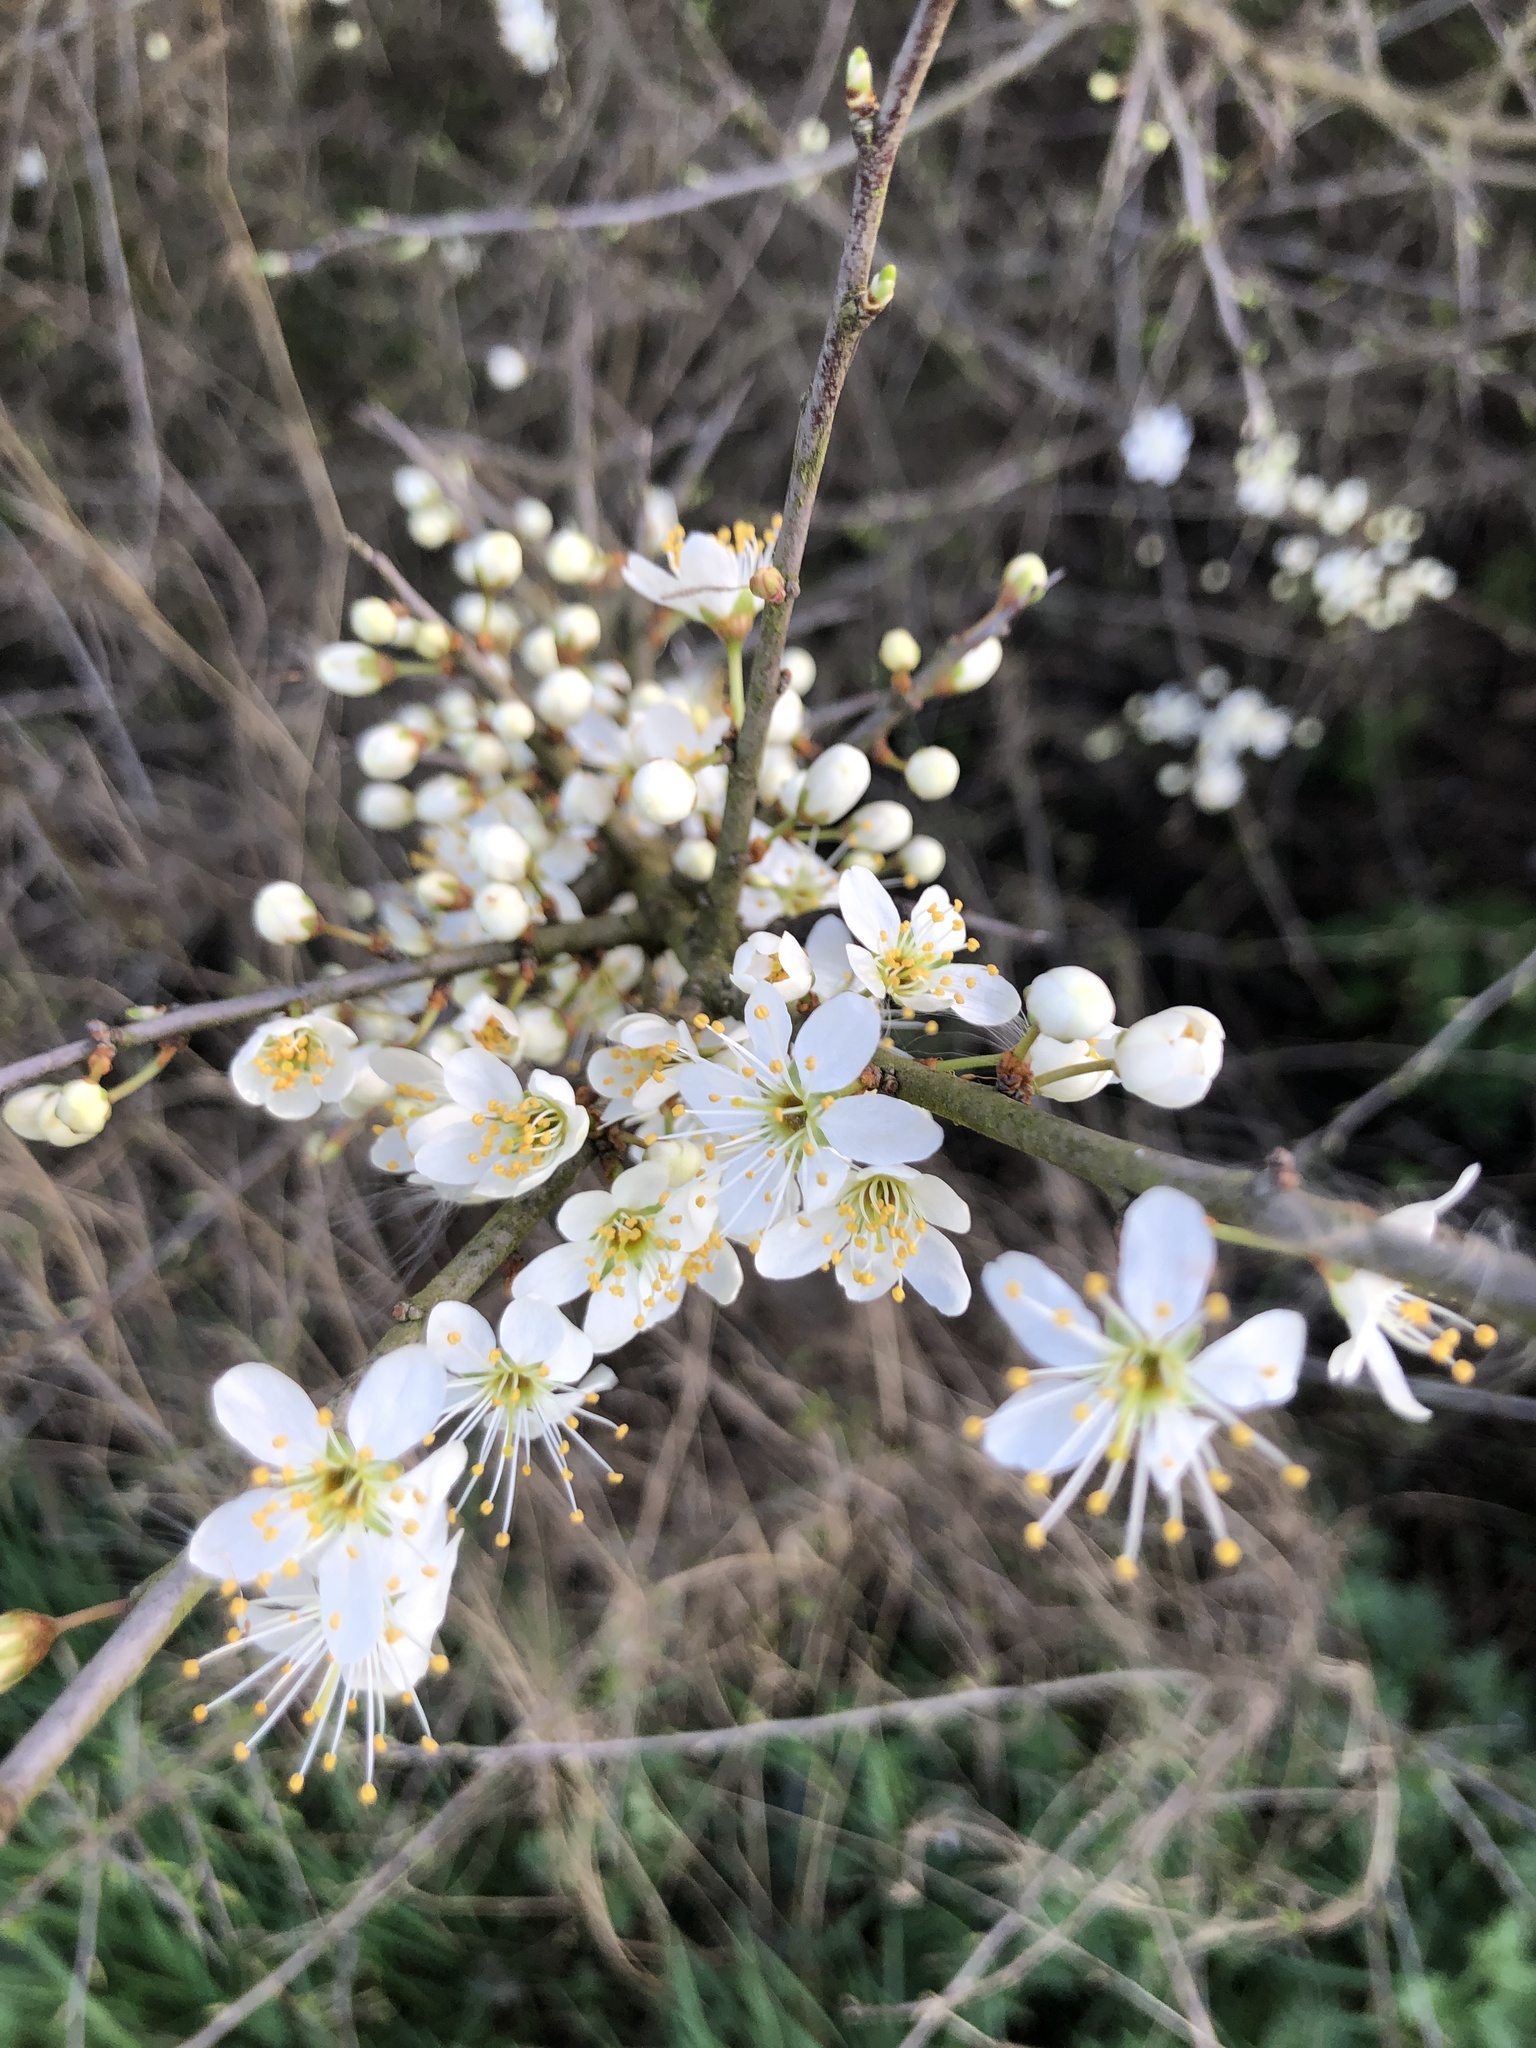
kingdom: Plantae
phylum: Tracheophyta
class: Magnoliopsida
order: Rosales
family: Rosaceae
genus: Prunus
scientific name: Prunus spinosa
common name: Blackthorn
